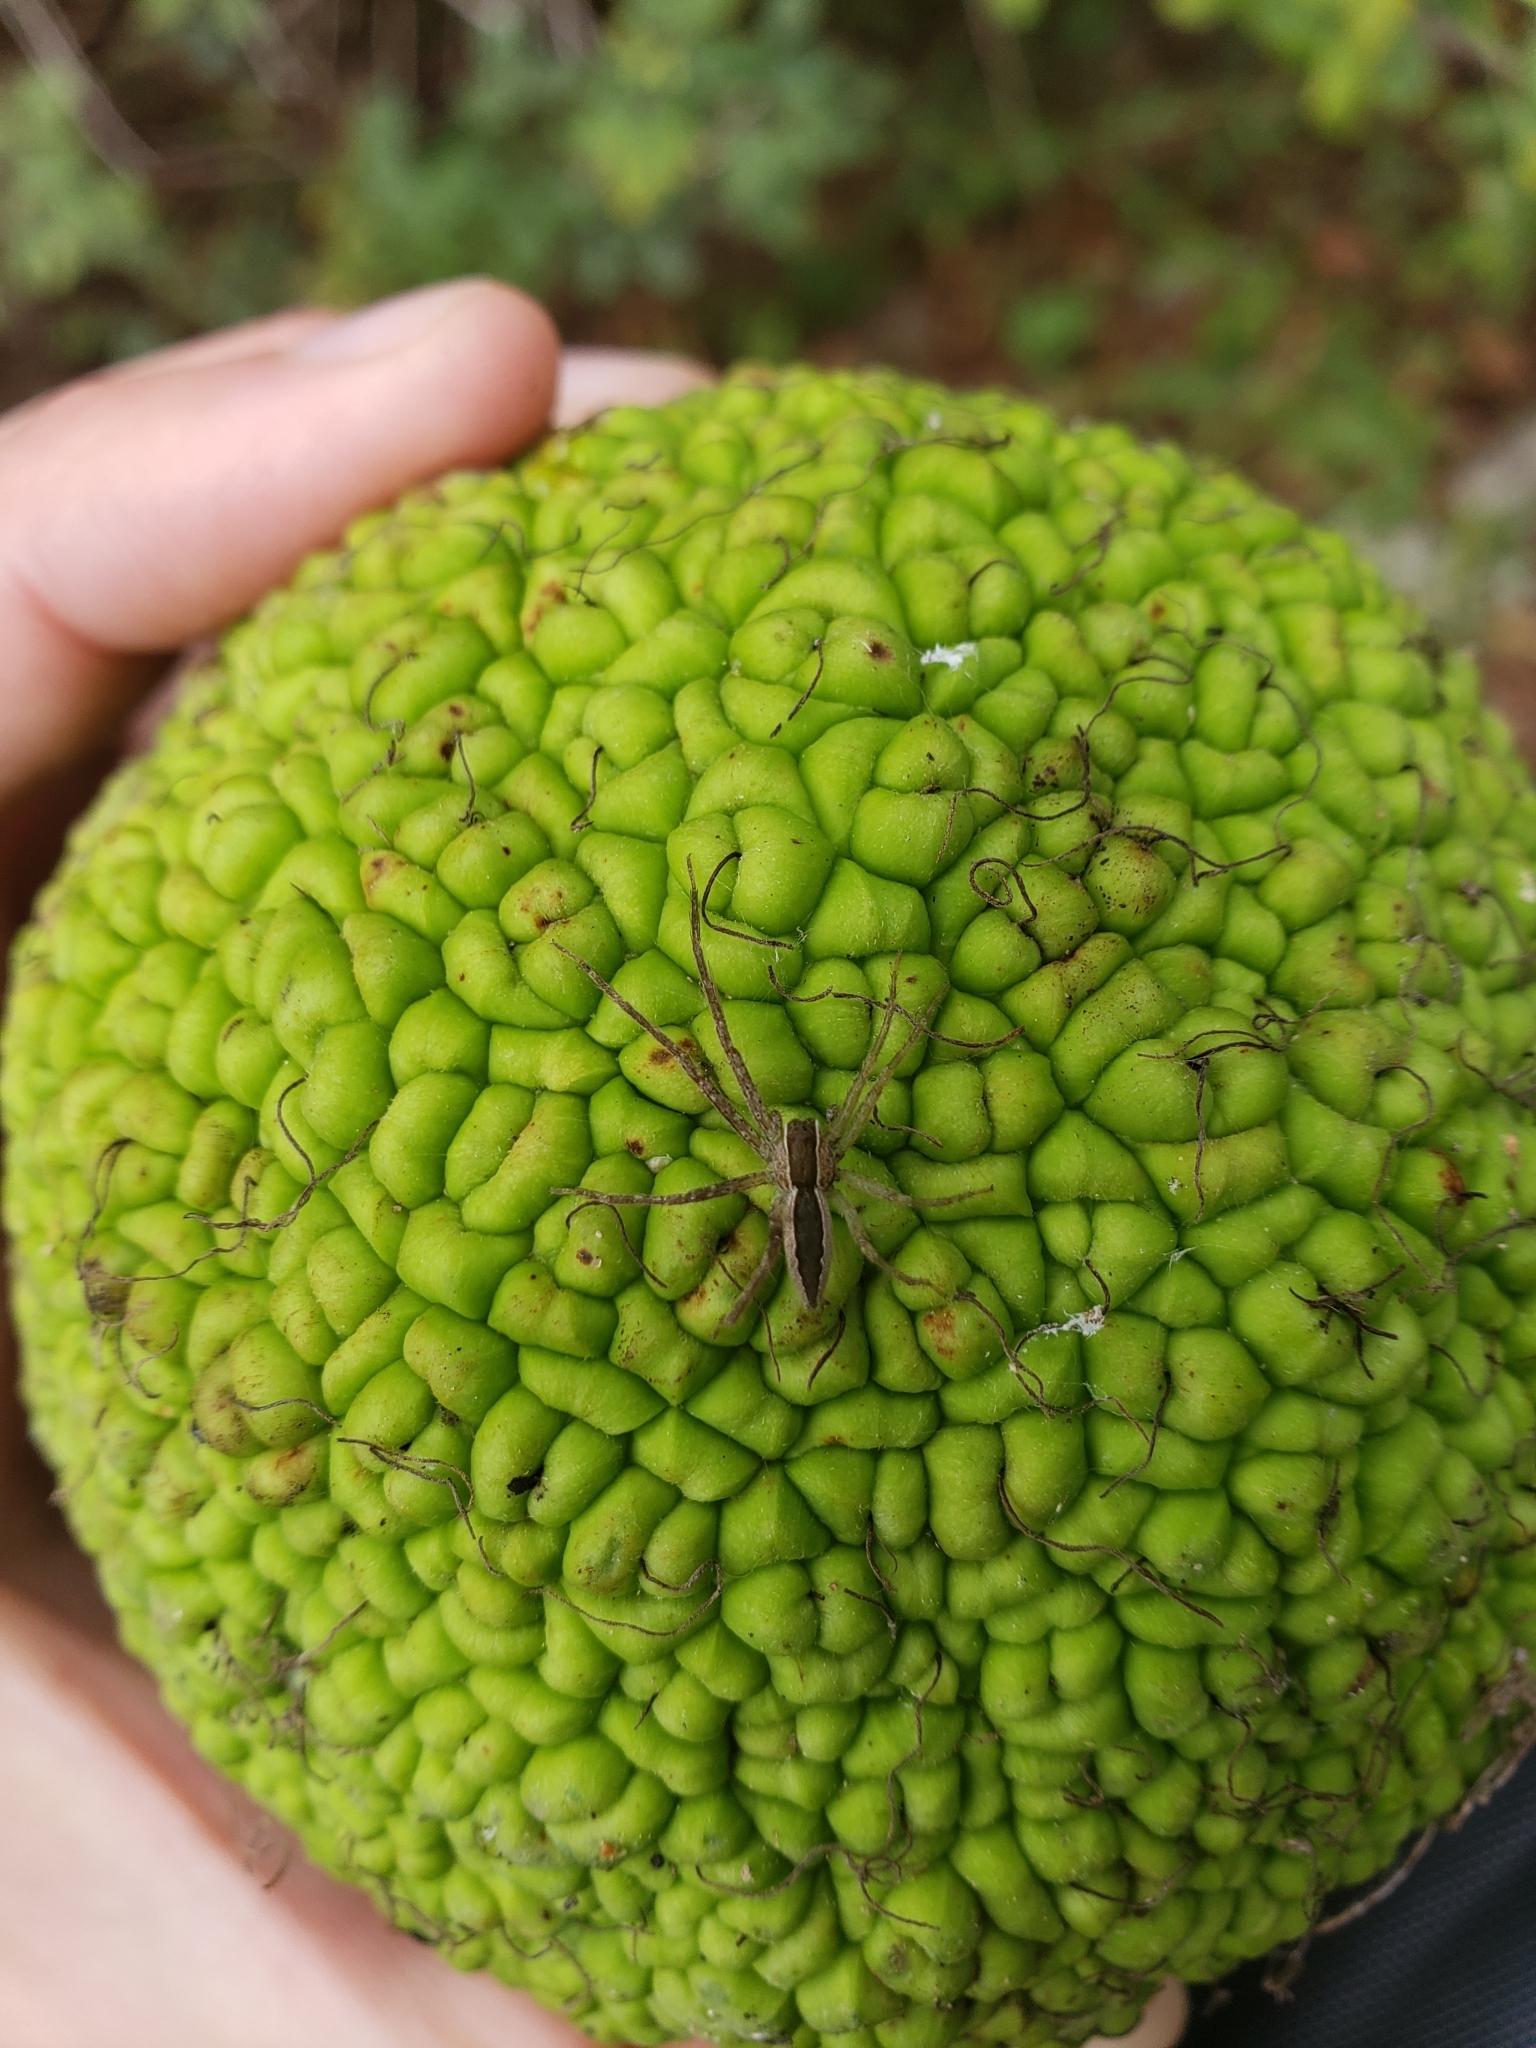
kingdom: Animalia
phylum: Arthropoda
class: Arachnida
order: Araneae
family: Pisauridae
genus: Pisaurina
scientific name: Pisaurina mira
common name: American nursery web spider
